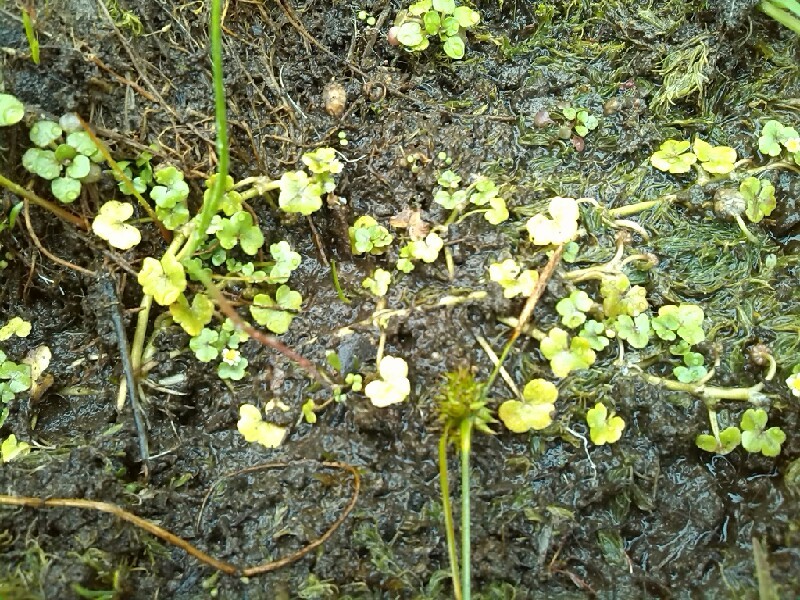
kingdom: Plantae
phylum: Tracheophyta
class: Magnoliopsida
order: Ranunculales
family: Ranunculaceae
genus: Ranunculus
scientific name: Ranunculus hederaceus
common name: Ivy-leaved crowfoot
